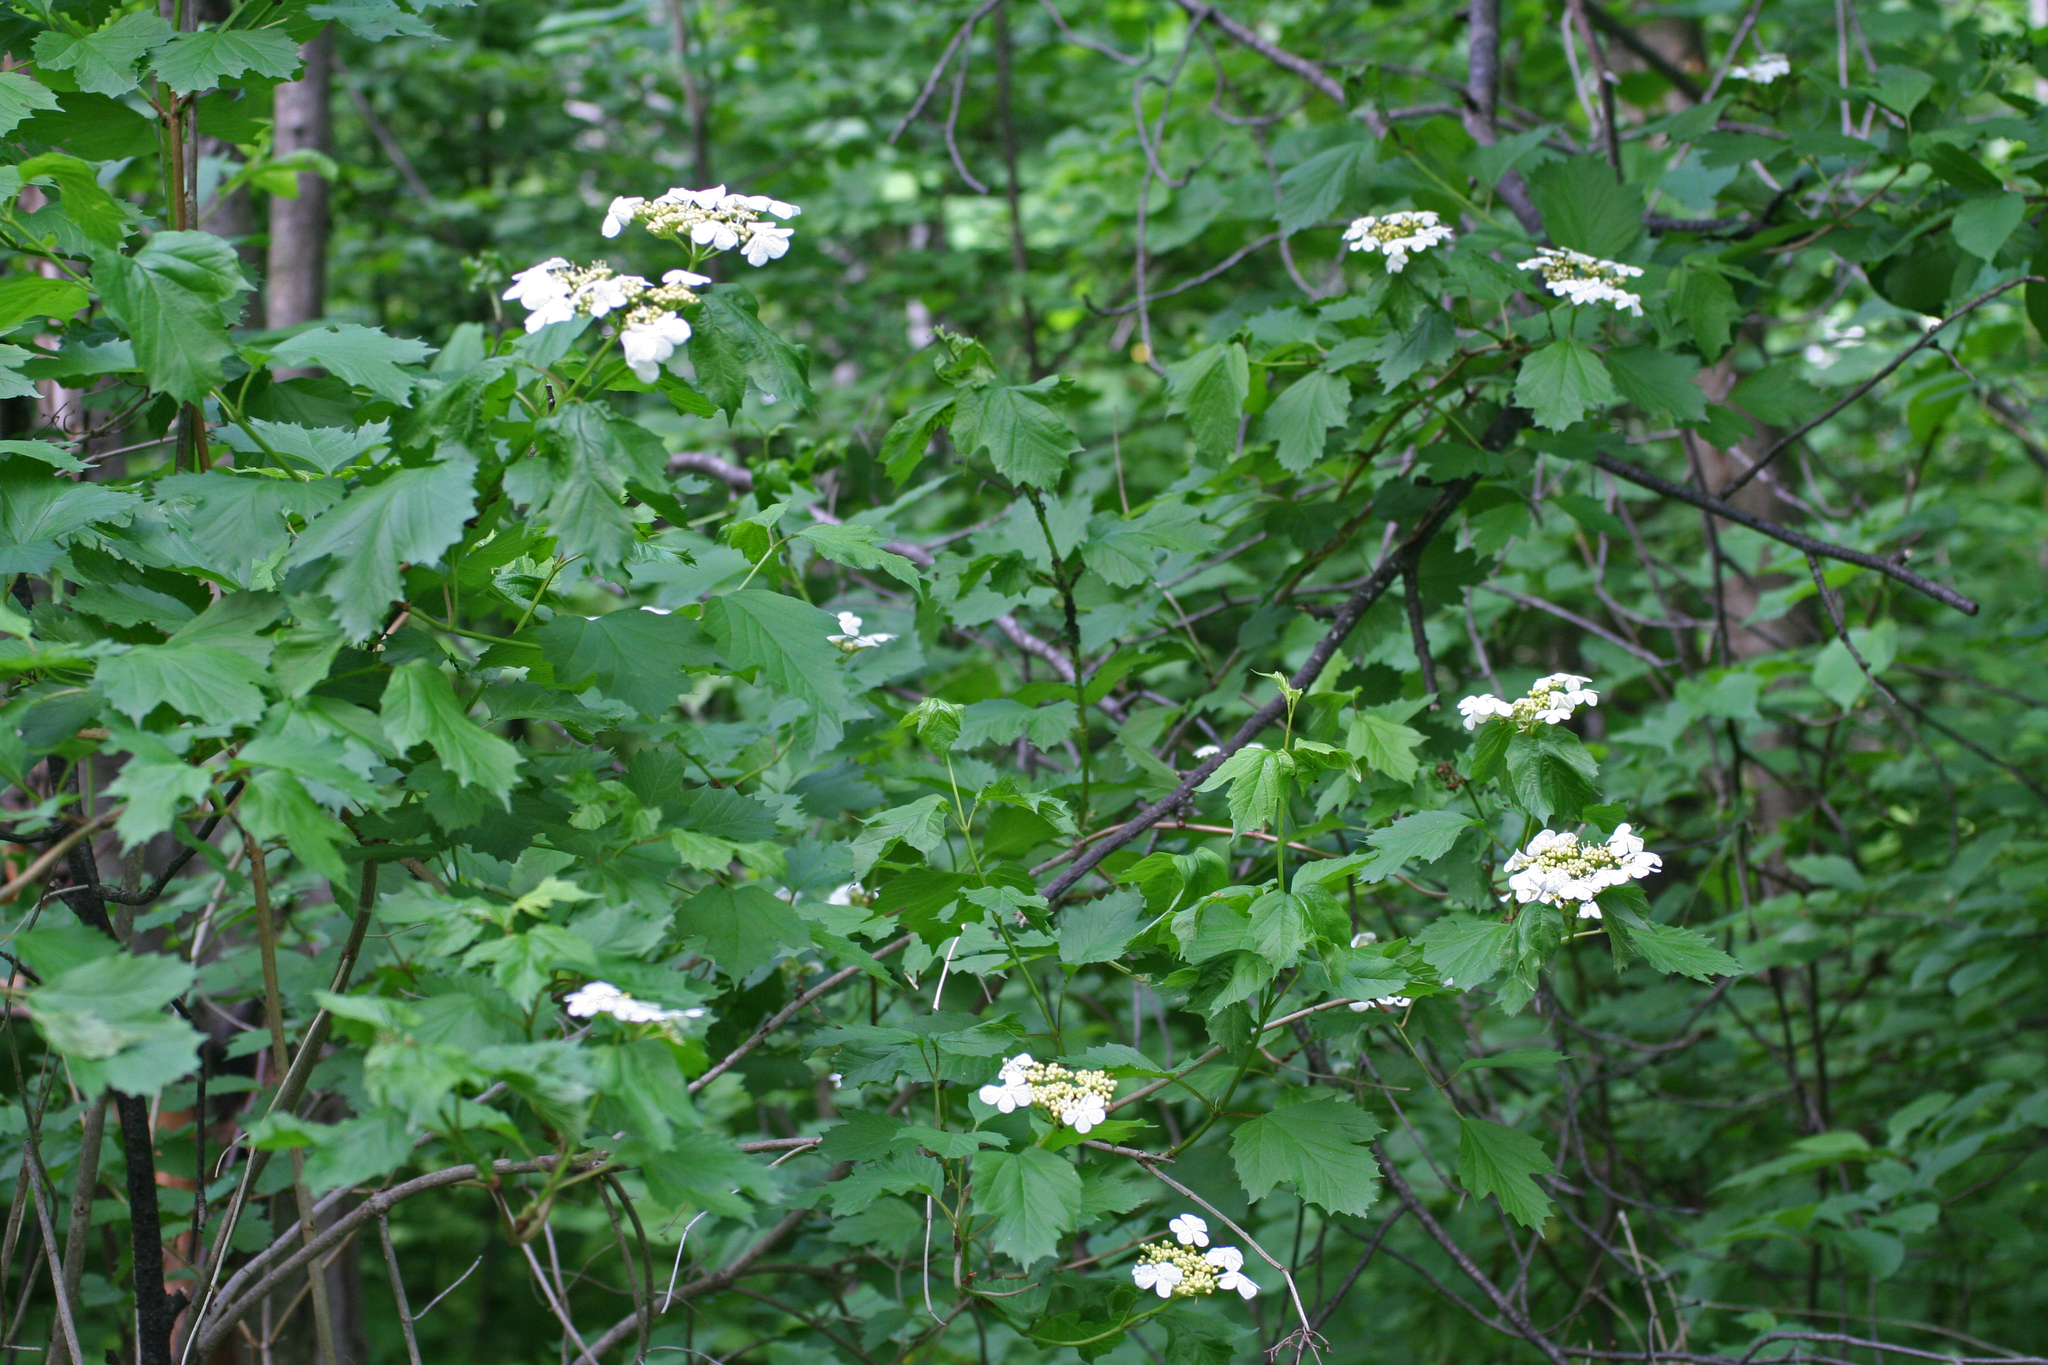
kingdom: Plantae
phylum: Tracheophyta
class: Magnoliopsida
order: Dipsacales
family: Viburnaceae
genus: Viburnum
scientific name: Viburnum opulus
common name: Guelder-rose
